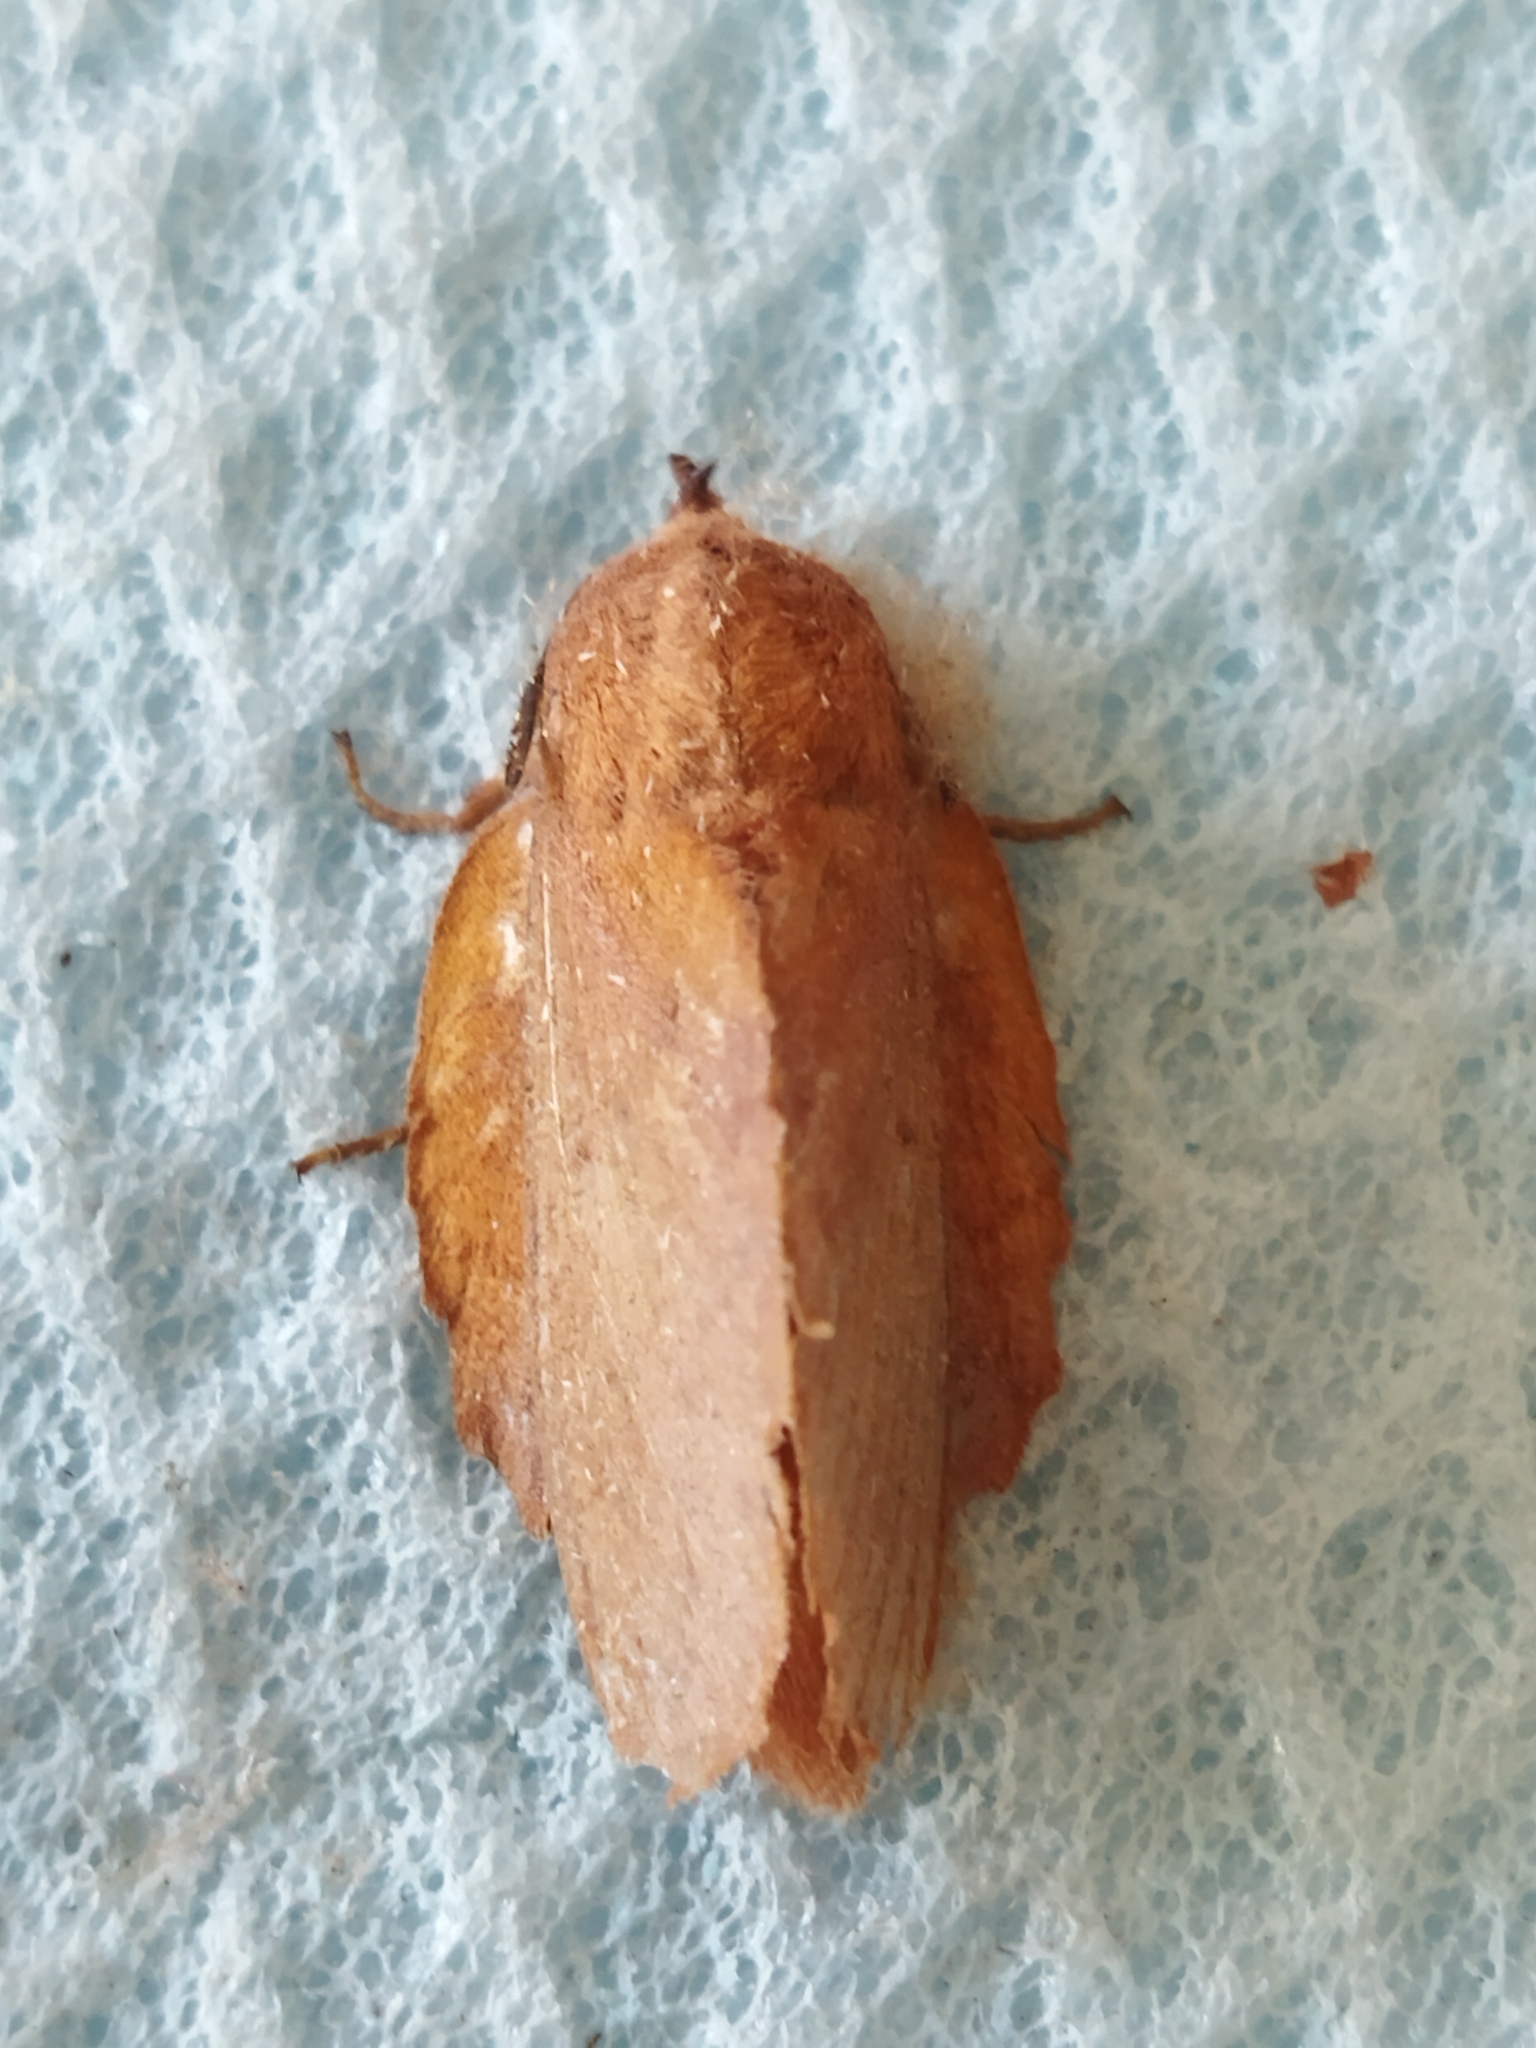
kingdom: Animalia
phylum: Arthropoda
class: Insecta
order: Lepidoptera
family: Lasiocampidae
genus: Gastropacha
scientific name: Gastropacha quercifolia
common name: Lappet
